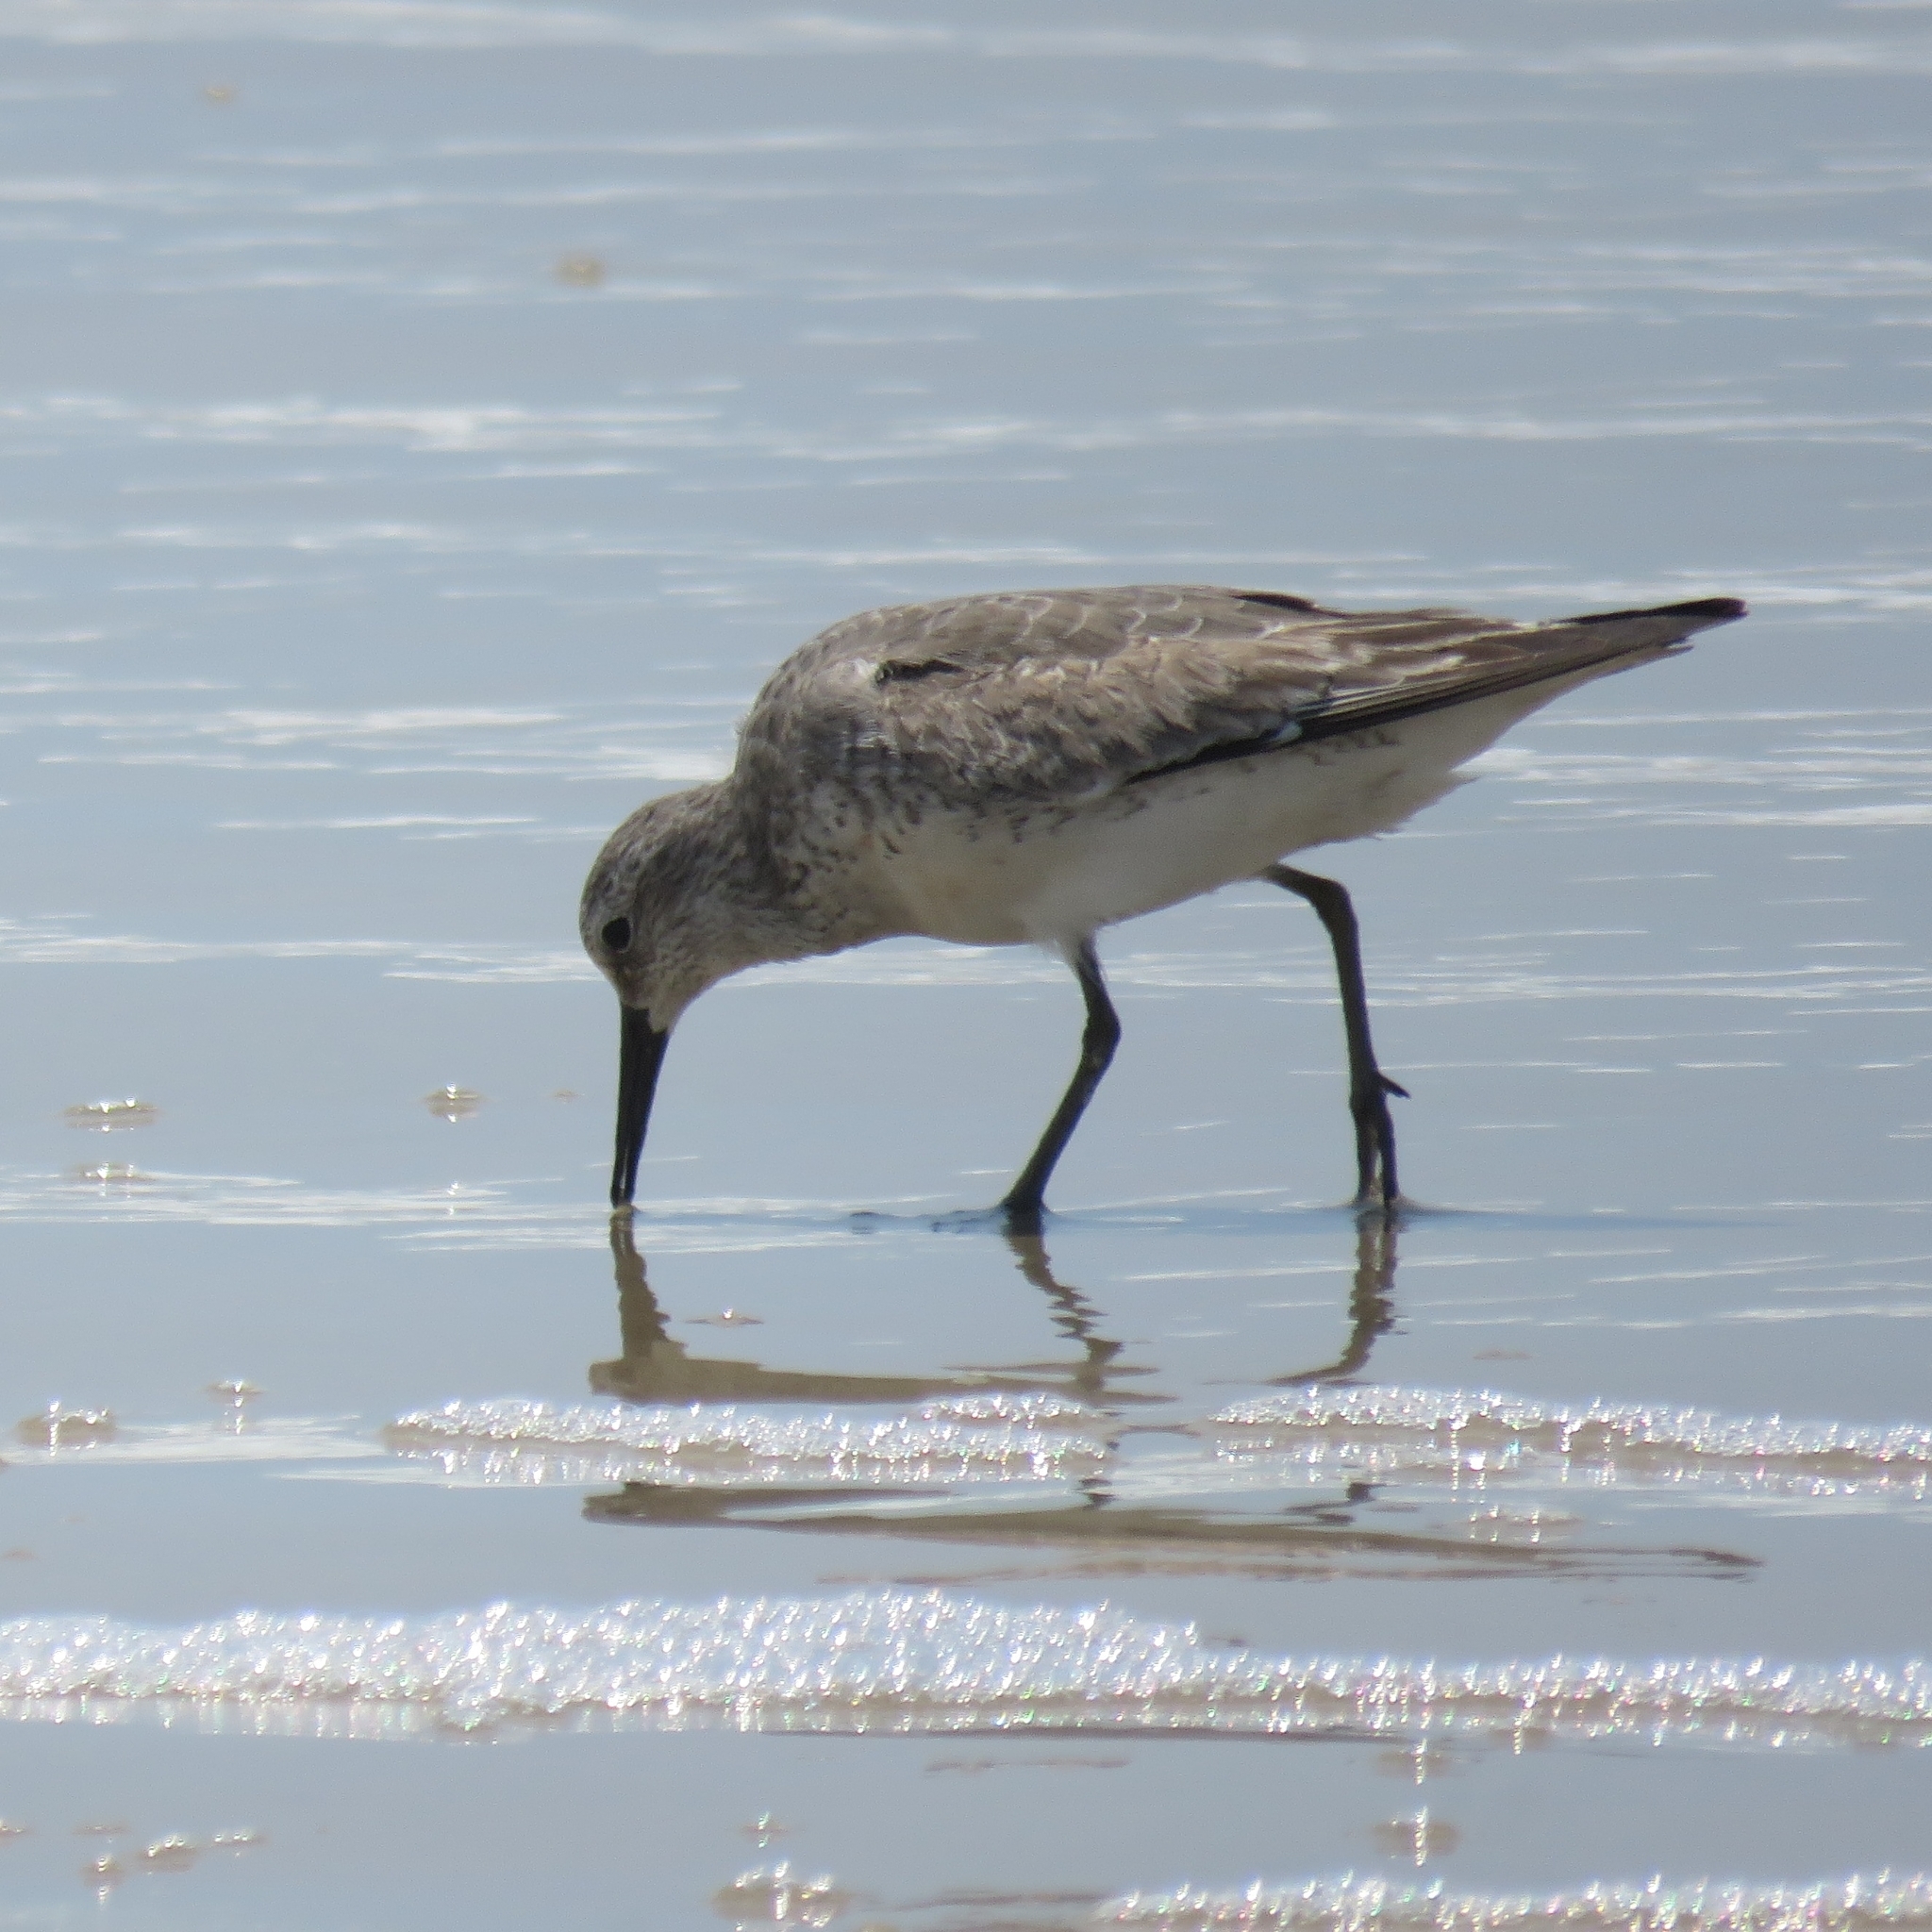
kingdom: Animalia
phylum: Chordata
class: Aves
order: Charadriiformes
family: Scolopacidae
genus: Calidris
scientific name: Calidris canutus
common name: Red knot
